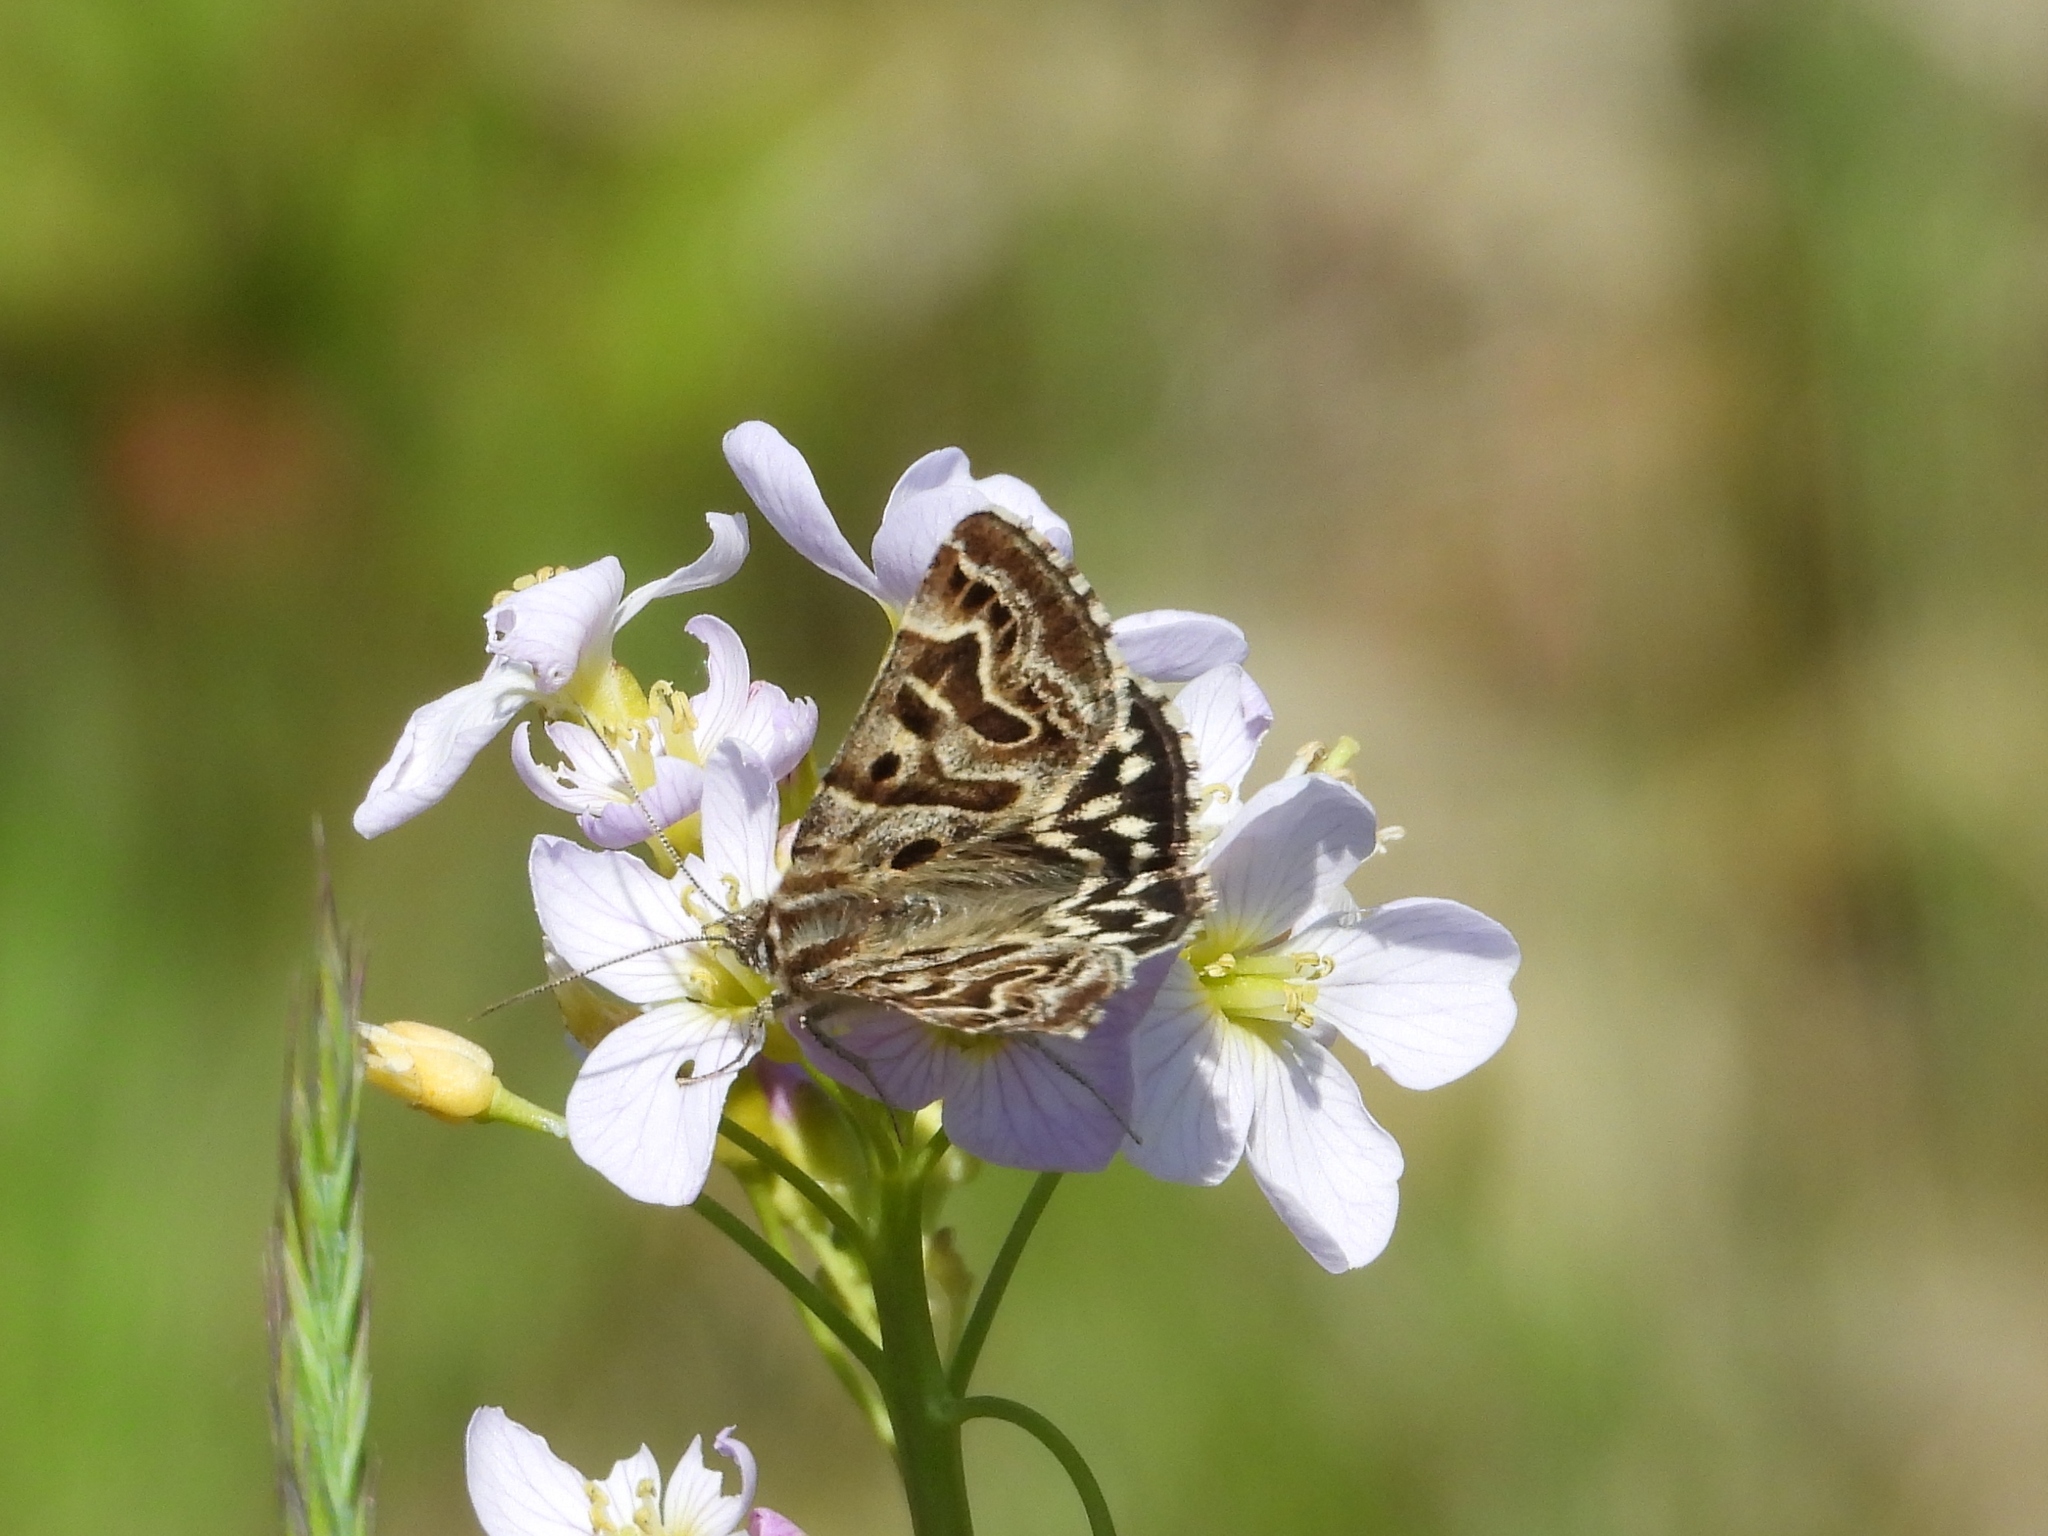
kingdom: Animalia
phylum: Arthropoda
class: Insecta
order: Lepidoptera
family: Erebidae
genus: Callistege
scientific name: Callistege mi
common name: Mother shipton
